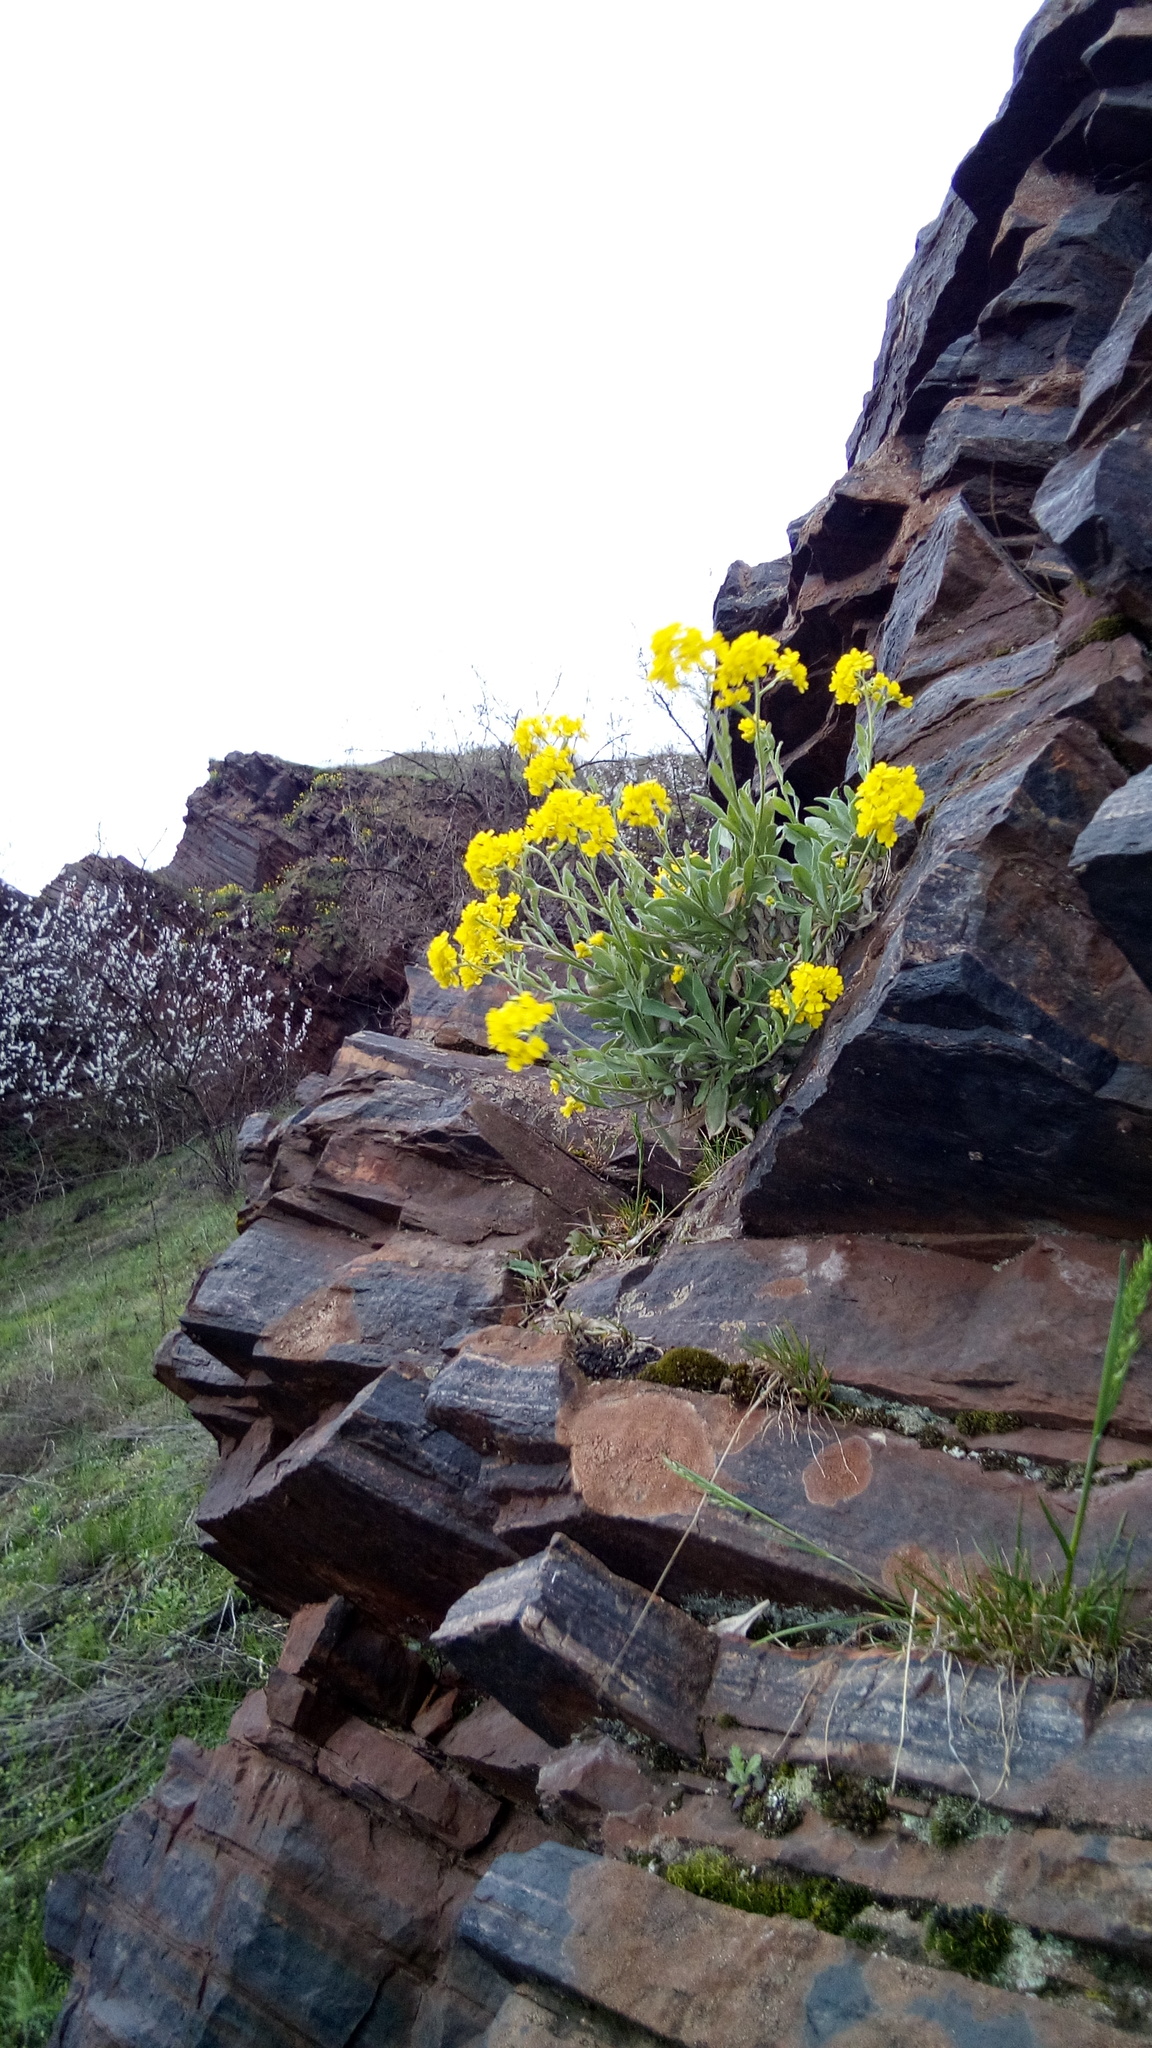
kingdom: Plantae
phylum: Tracheophyta
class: Magnoliopsida
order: Brassicales
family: Brassicaceae
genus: Aurinia
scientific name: Aurinia saxatilis
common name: Golden-tuft alyssum
